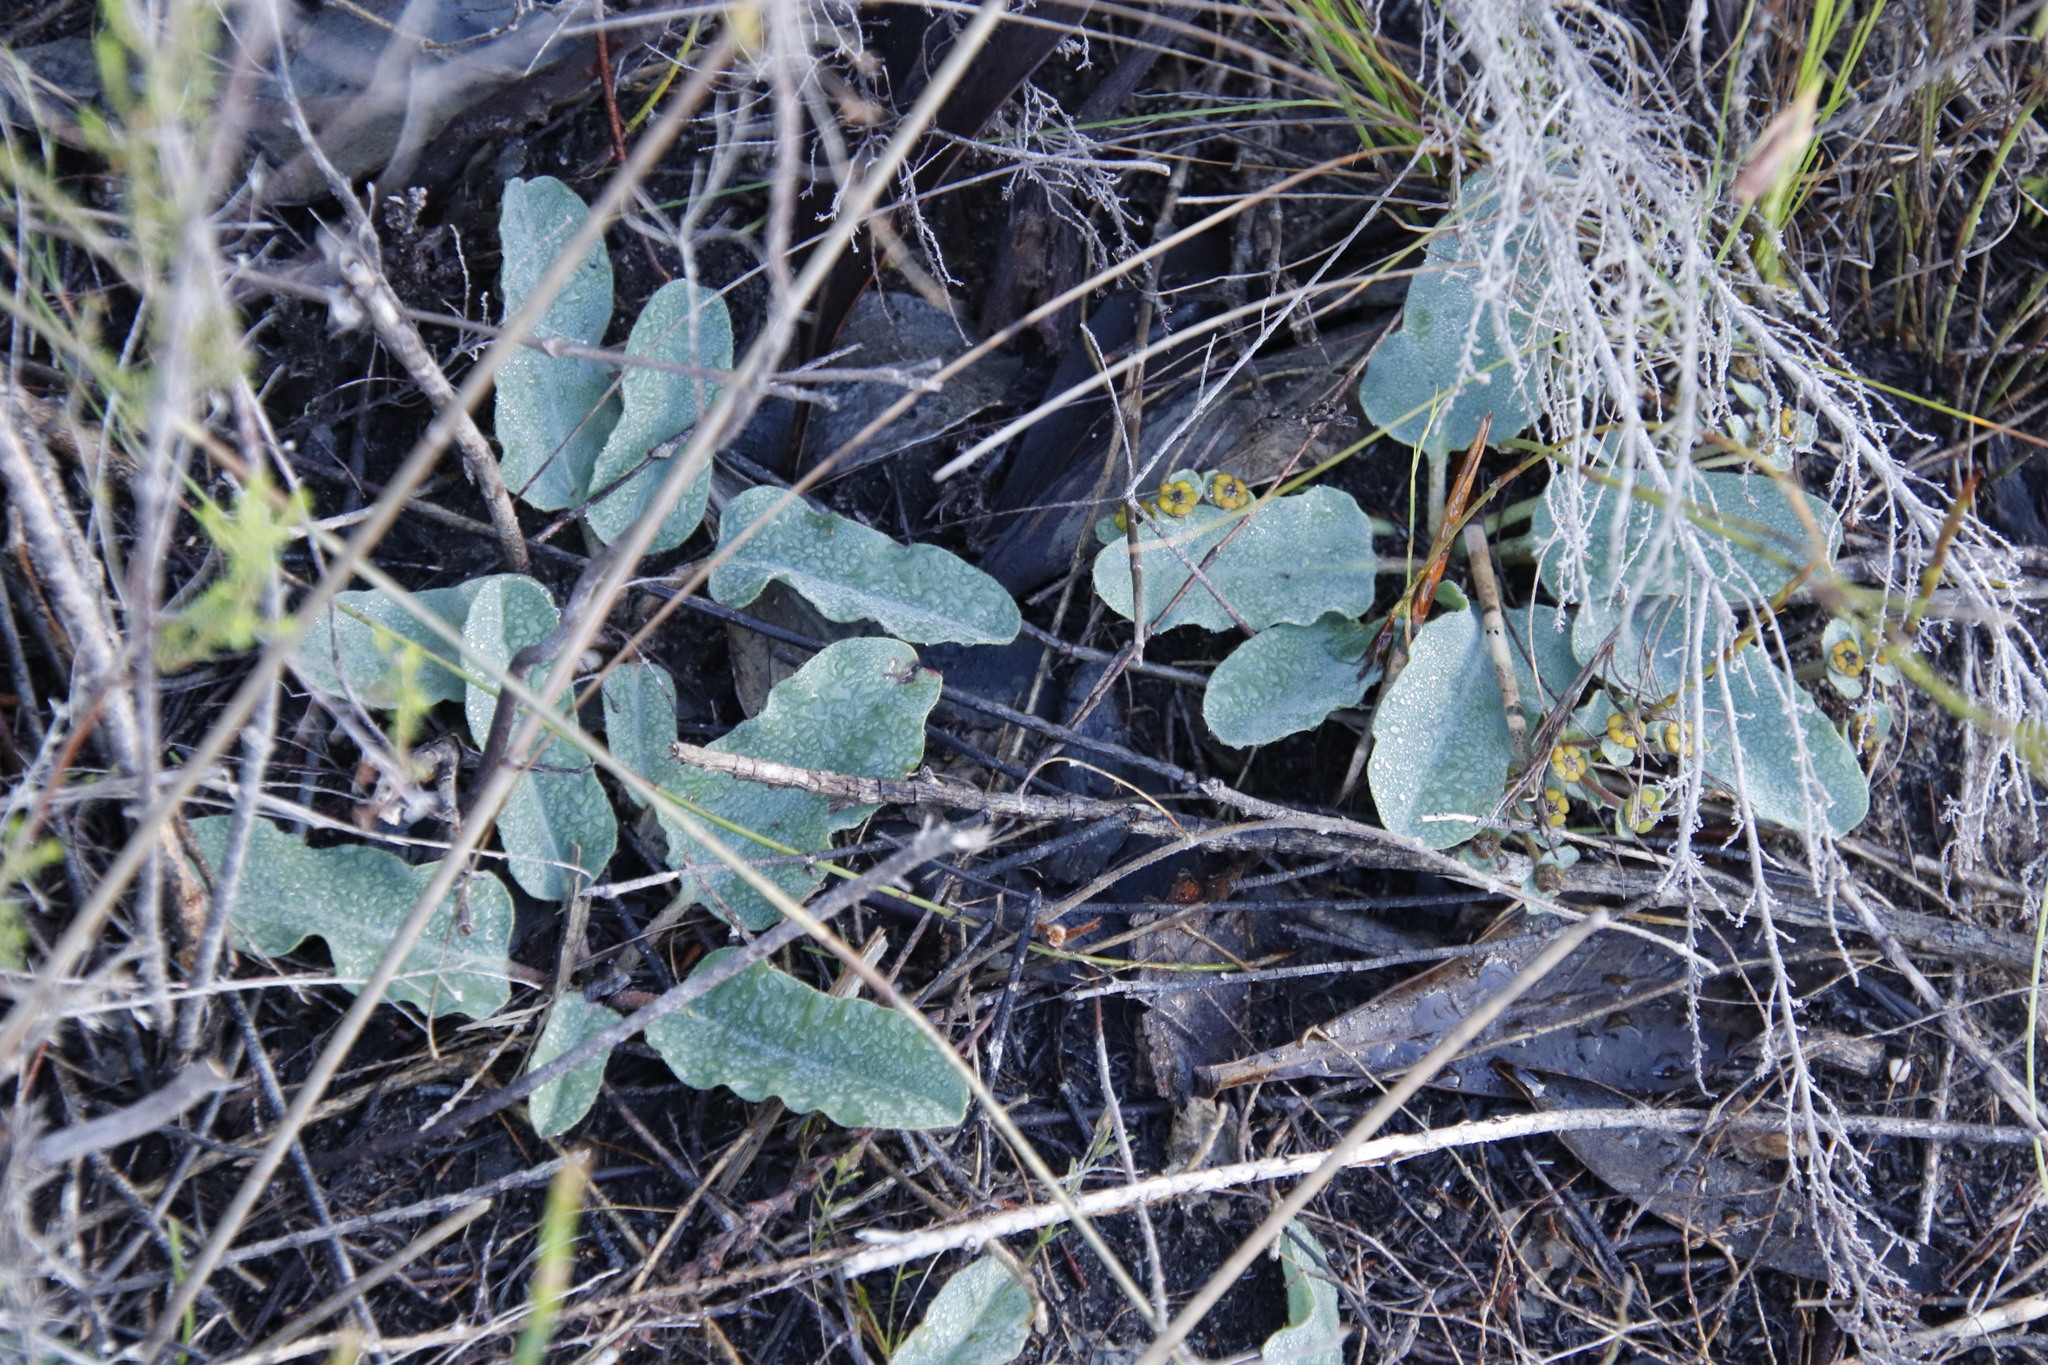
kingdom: Plantae
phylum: Tracheophyta
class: Magnoliopsida
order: Malpighiales
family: Euphorbiaceae
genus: Euphorbia
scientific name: Euphorbia tuberosa
